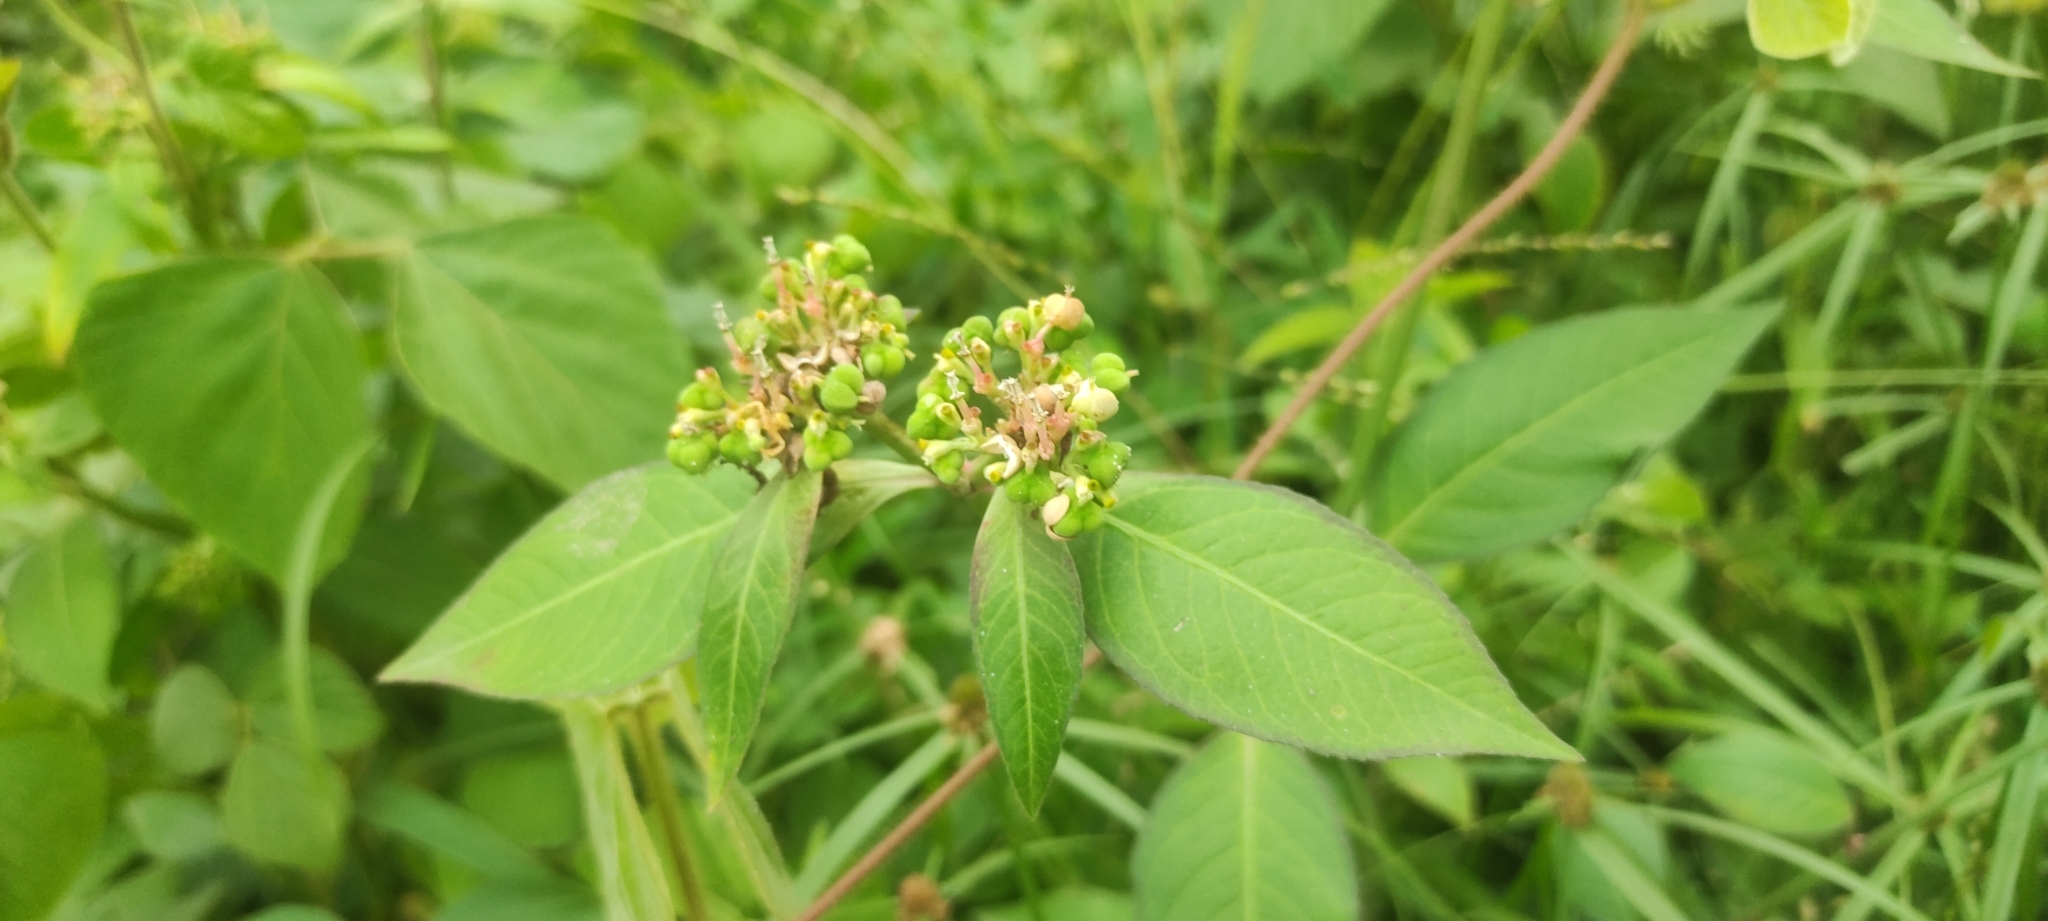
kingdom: Plantae
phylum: Tracheophyta
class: Magnoliopsida
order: Malpighiales
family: Euphorbiaceae
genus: Euphorbia
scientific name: Euphorbia heterophylla
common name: Mexican fireplant
